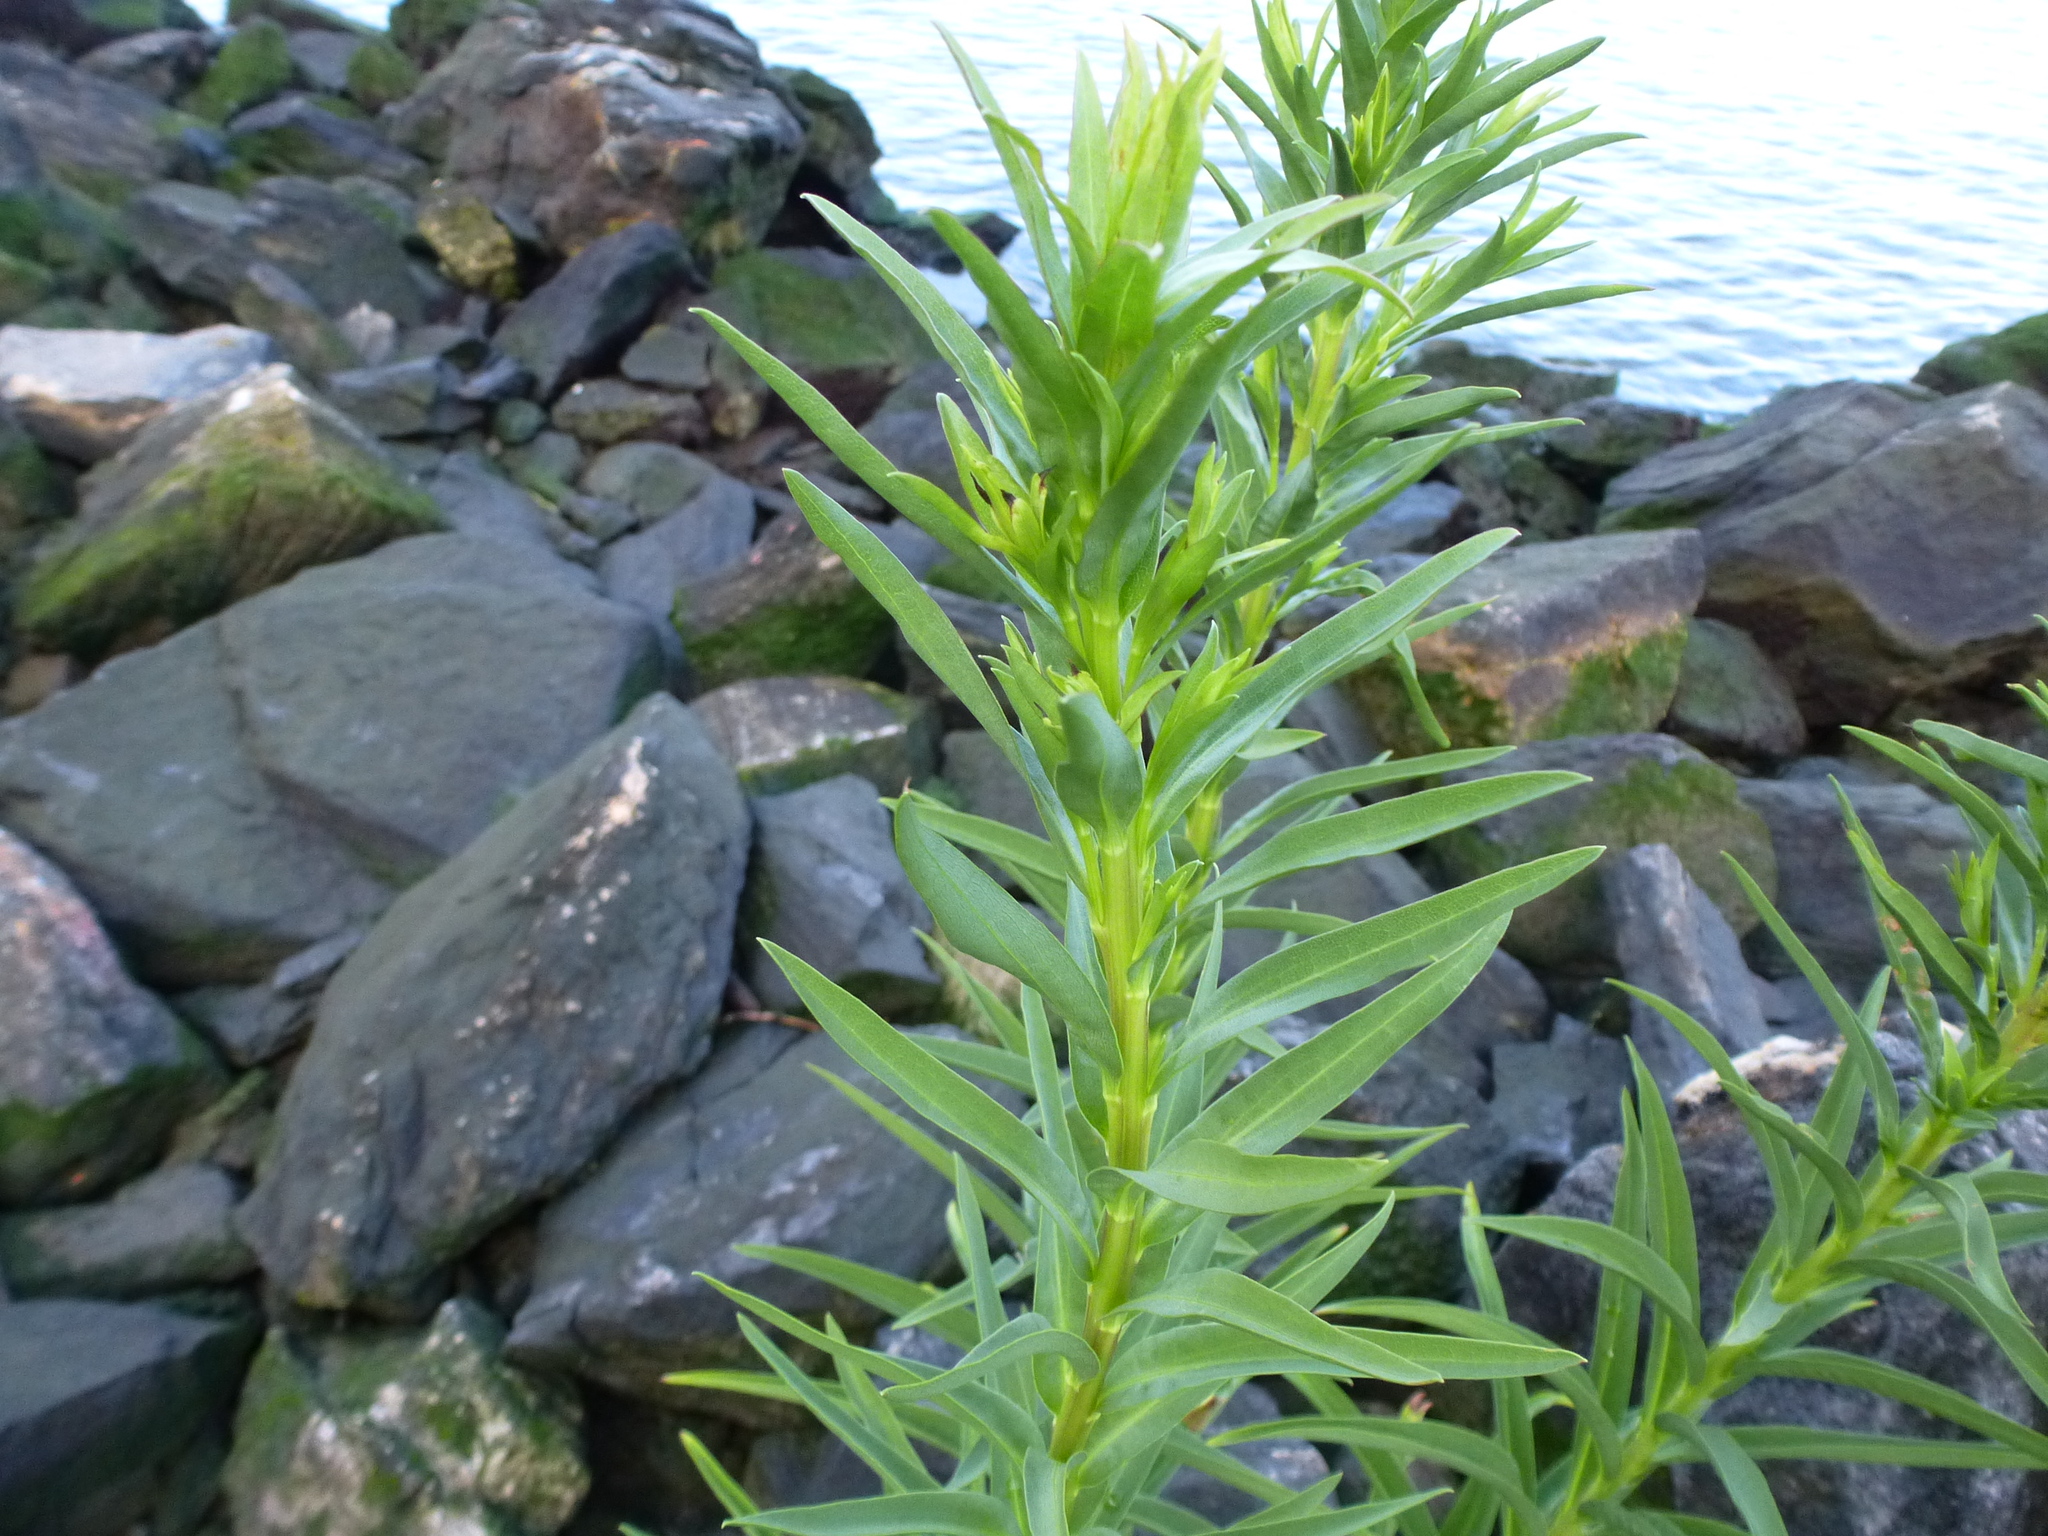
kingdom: Plantae
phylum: Tracheophyta
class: Magnoliopsida
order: Asterales
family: Asteraceae
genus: Solidago
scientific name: Solidago sempervirens
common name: Salt-marsh goldenrod
